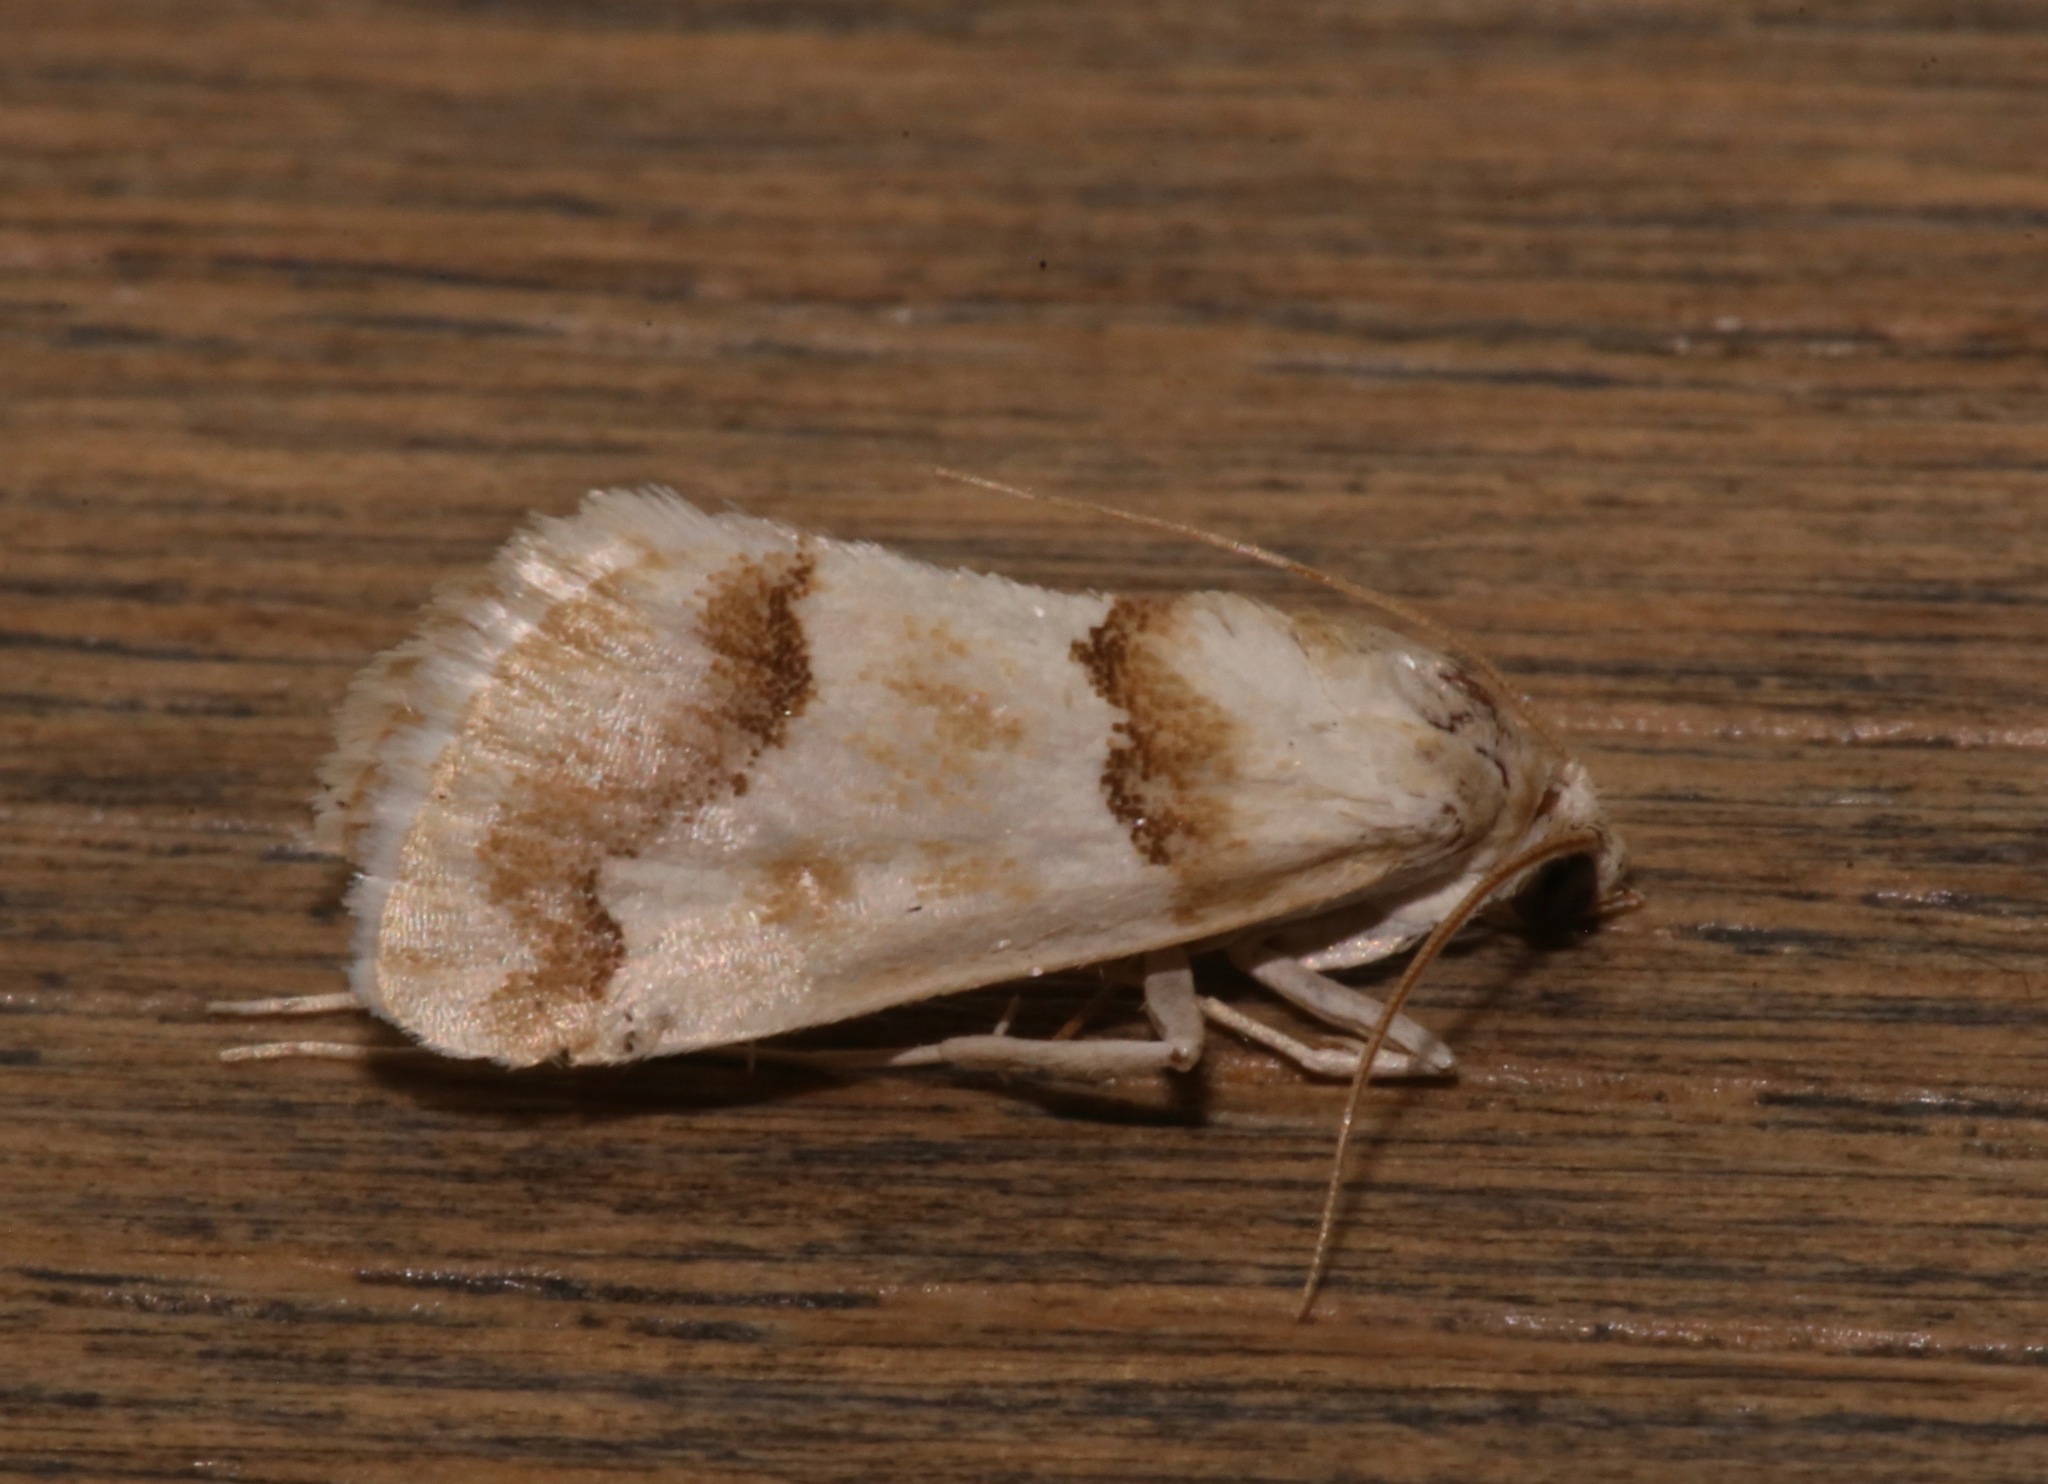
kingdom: Animalia
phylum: Arthropoda
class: Insecta
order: Lepidoptera
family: Crambidae
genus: Pseudoschinia
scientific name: Pseudoschinia elautalis
